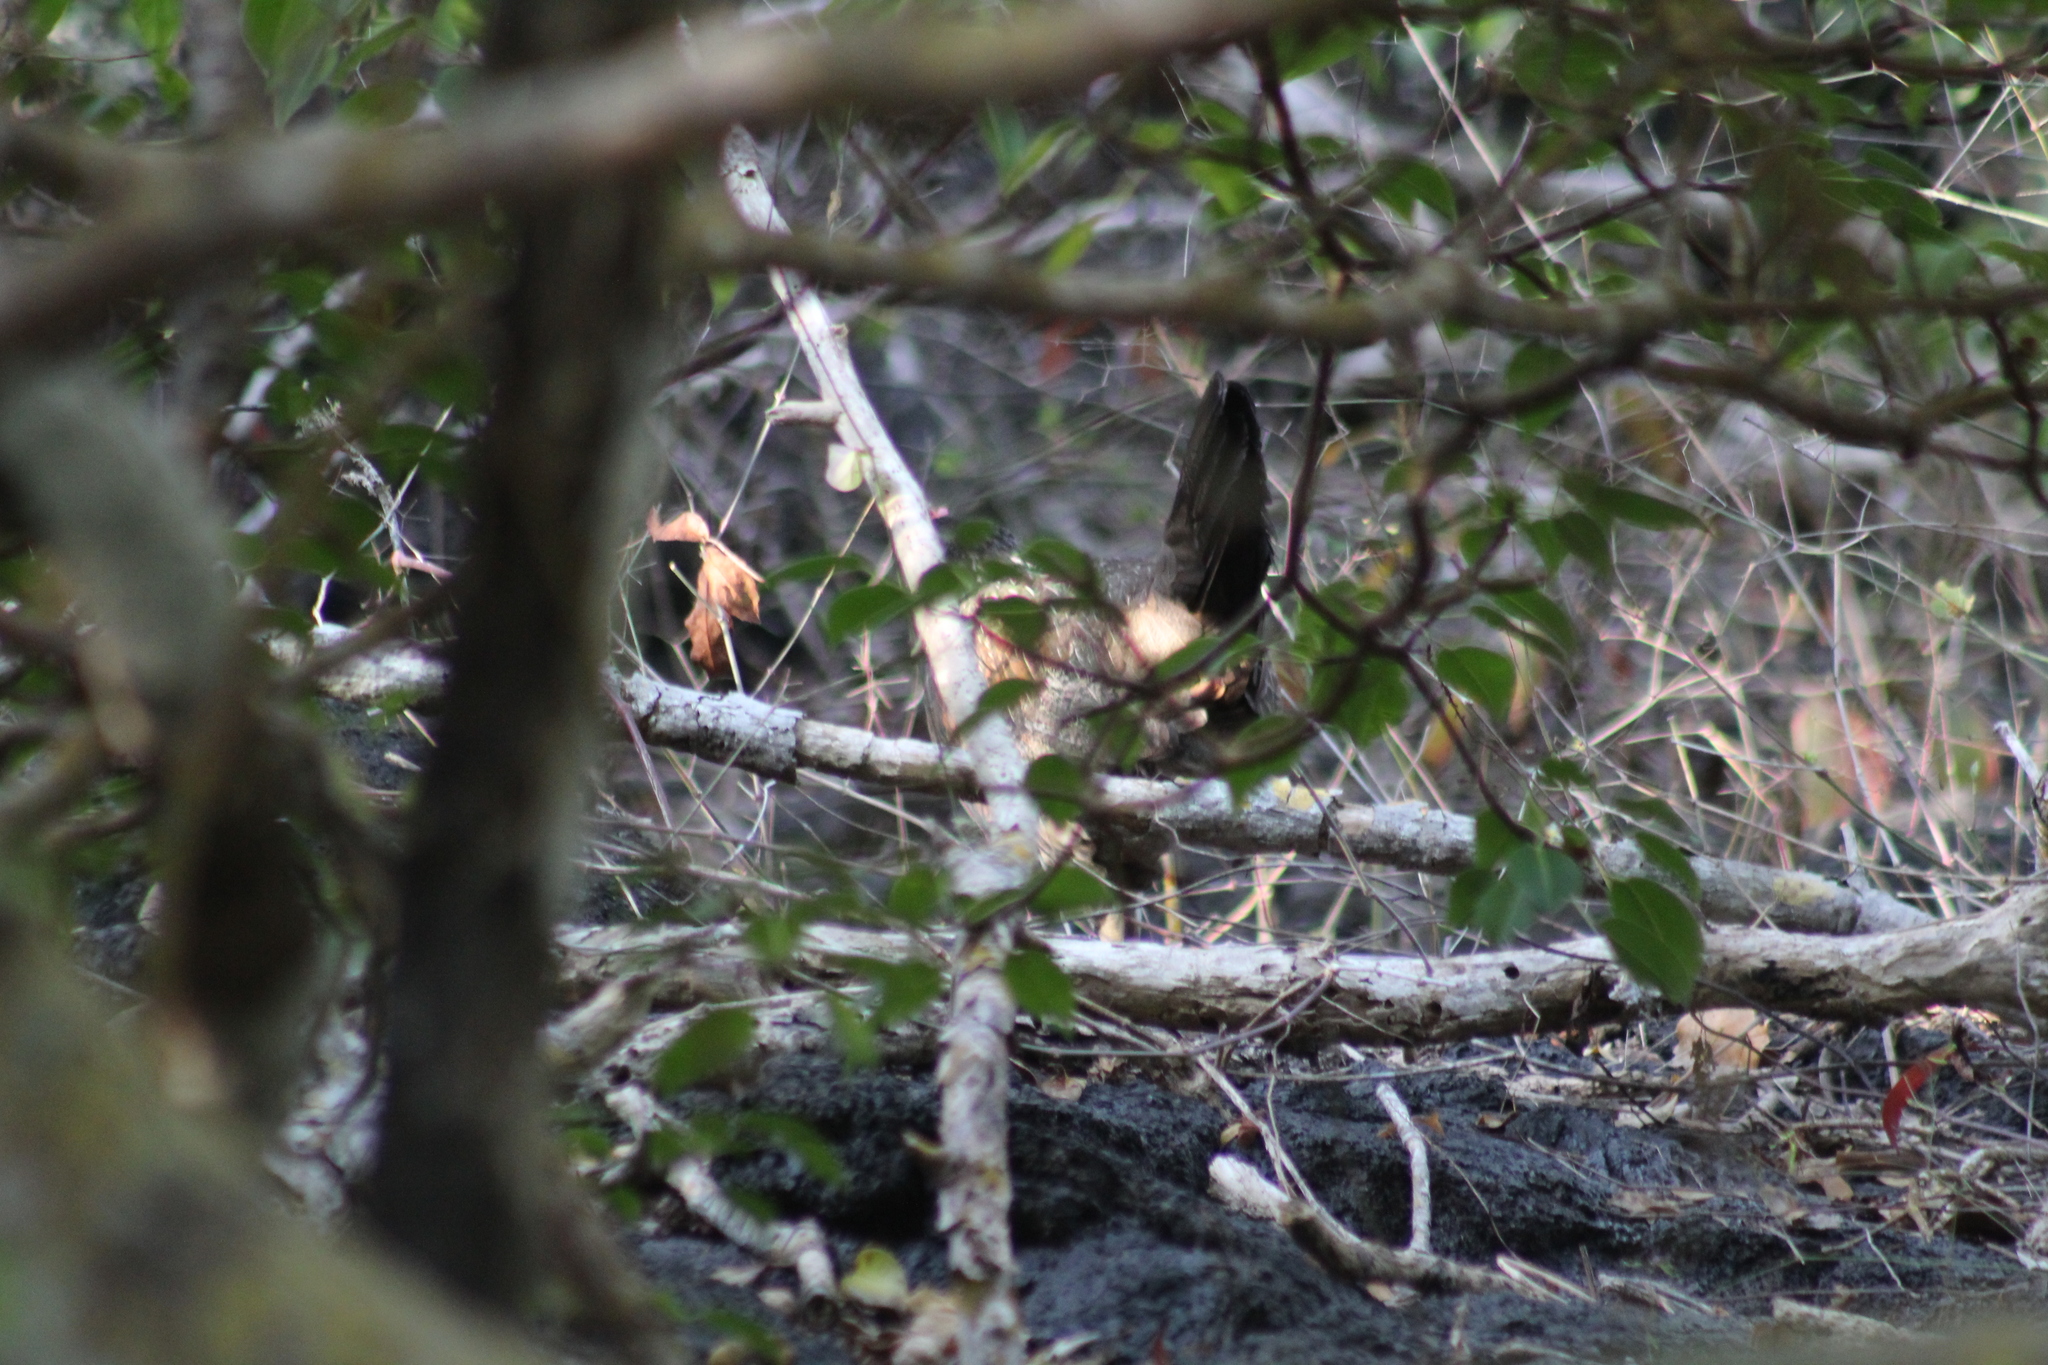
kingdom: Animalia
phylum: Chordata
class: Aves
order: Galliformes
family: Phasianidae
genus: Gallus
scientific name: Gallus gallus
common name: Red junglefowl
